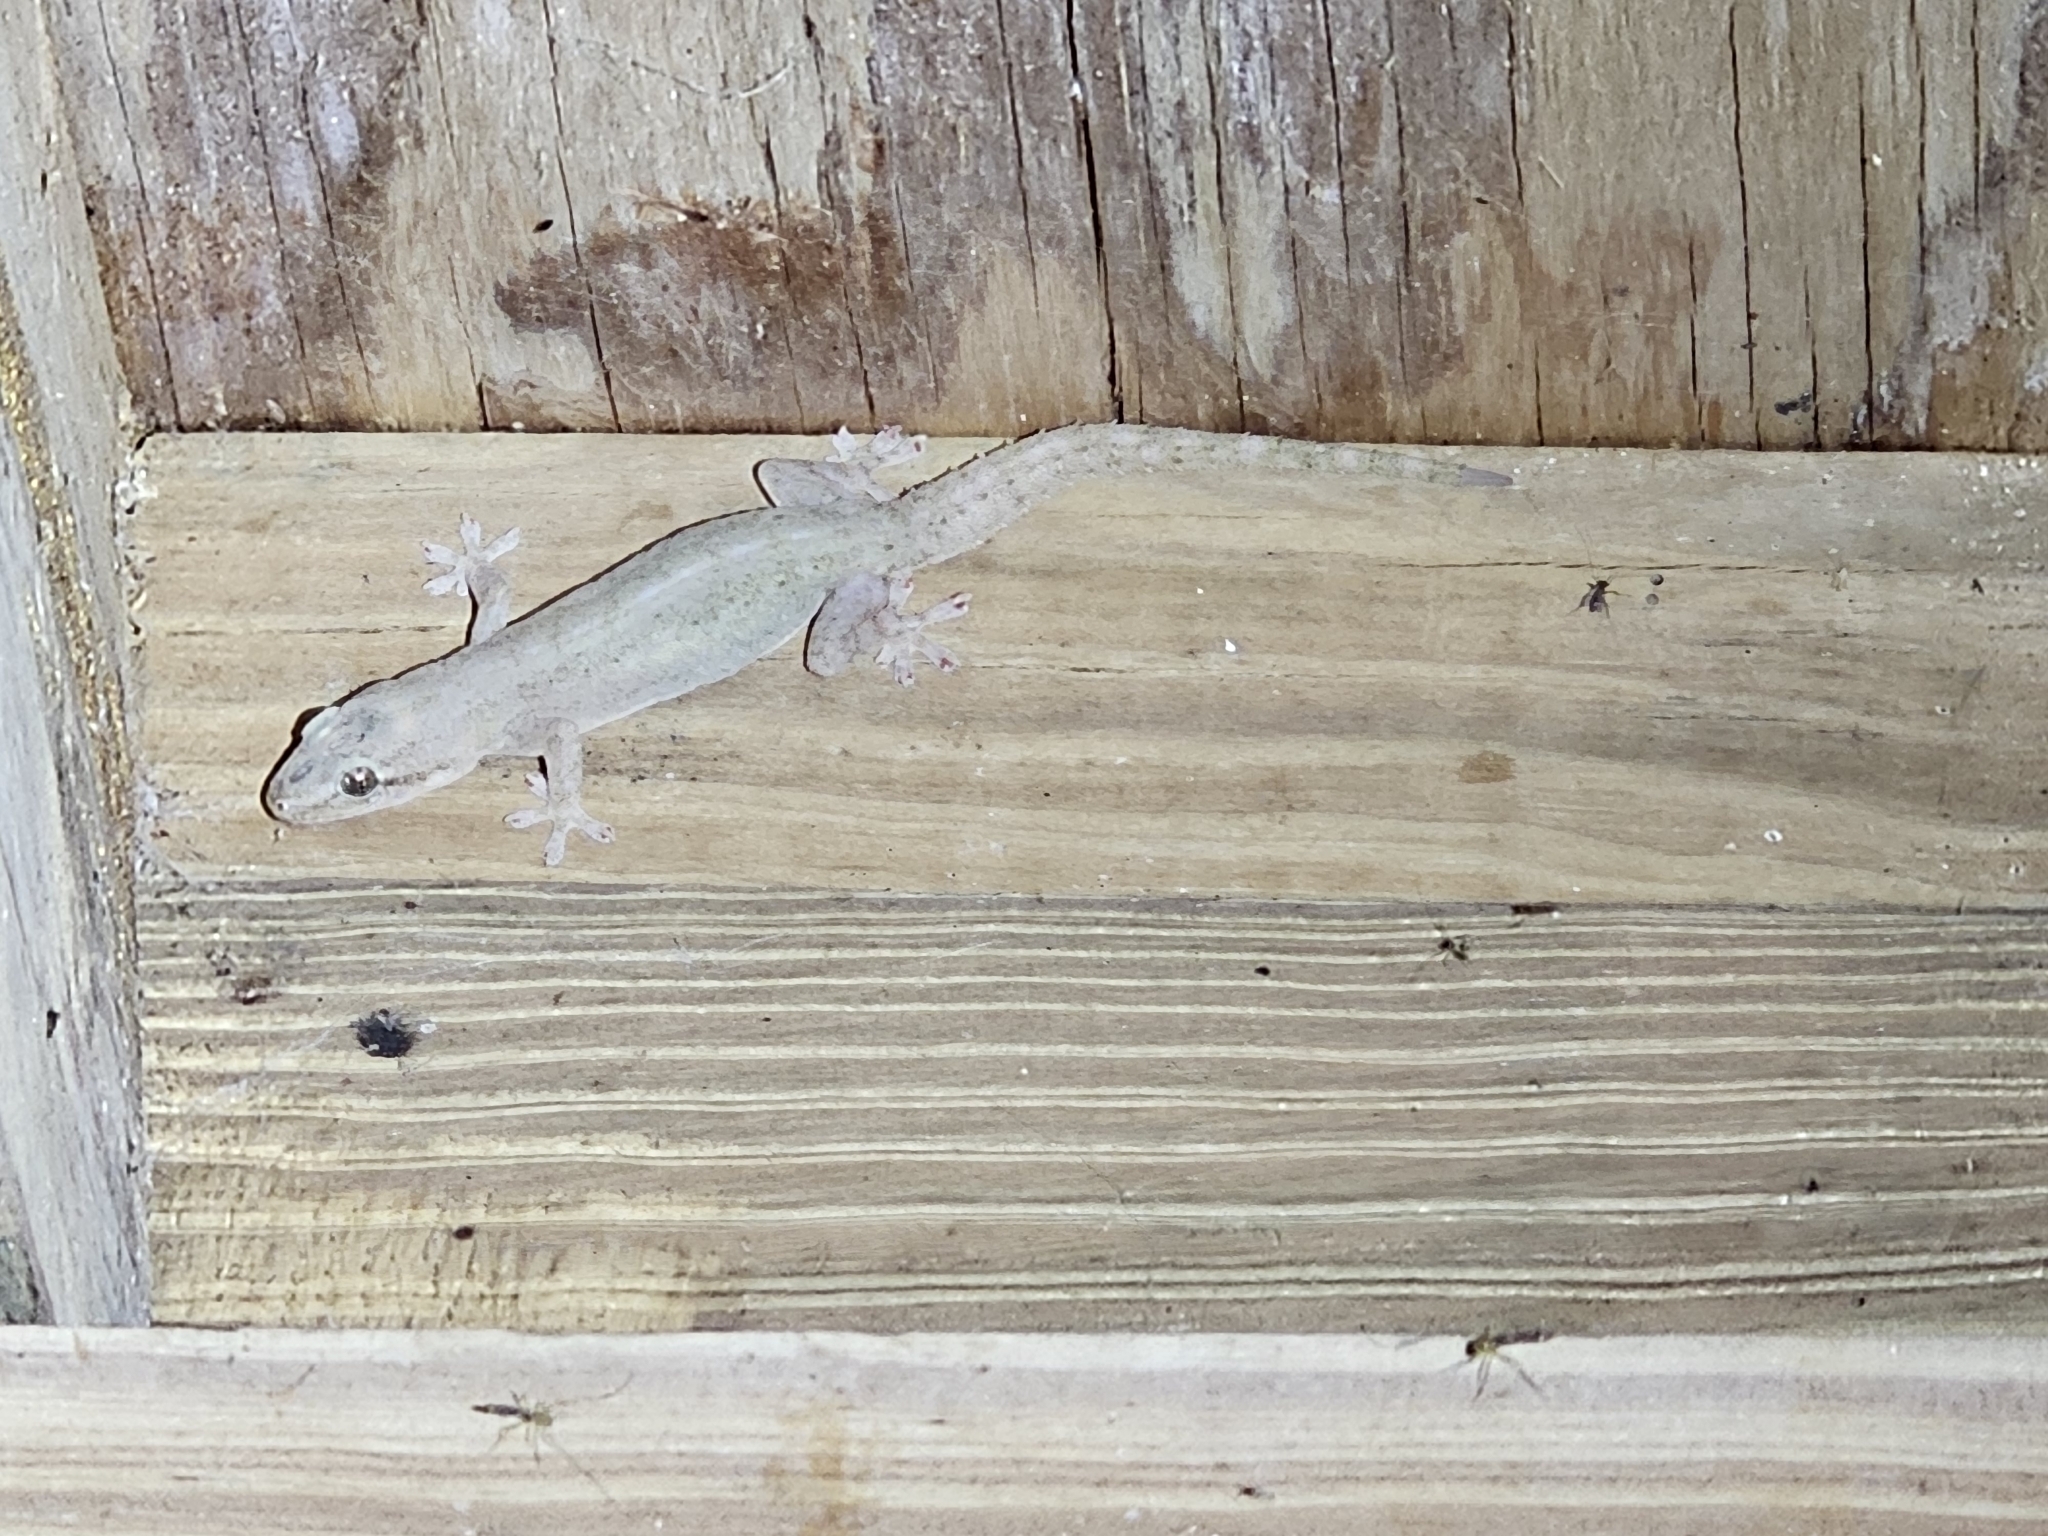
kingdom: Animalia
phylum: Chordata
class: Squamata
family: Gekkonidae
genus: Hemidactylus
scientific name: Hemidactylus frenatus
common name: Common house gecko
